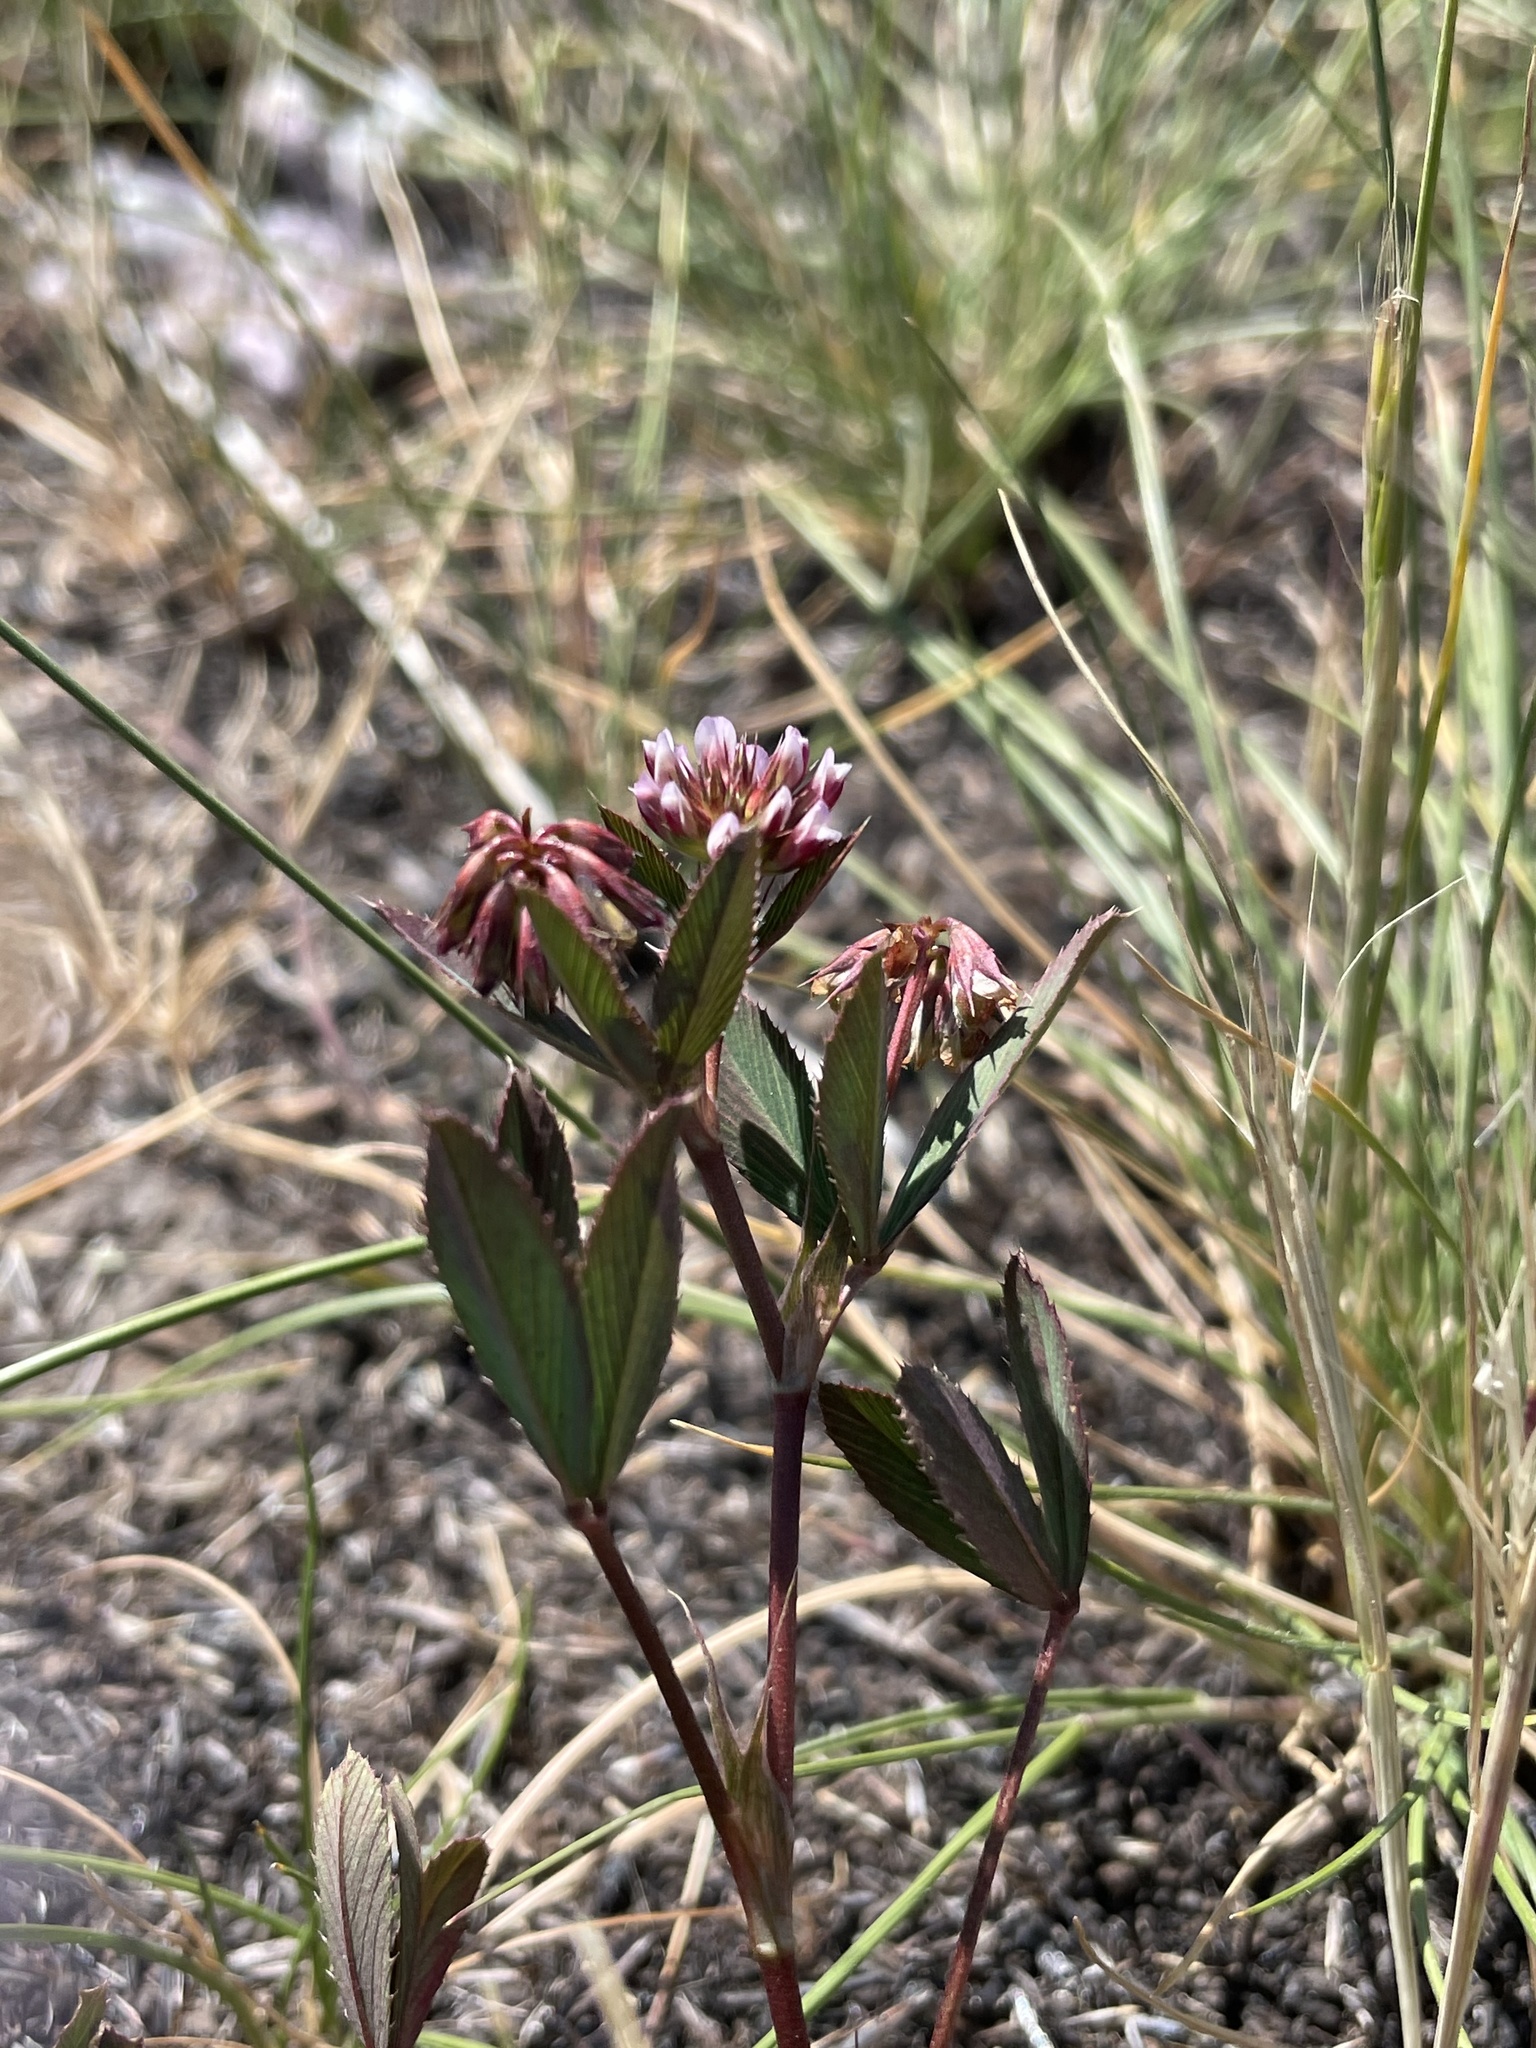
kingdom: Plantae
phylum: Tracheophyta
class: Magnoliopsida
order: Fabales
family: Fabaceae
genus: Trifolium
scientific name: Trifolium palmeri
